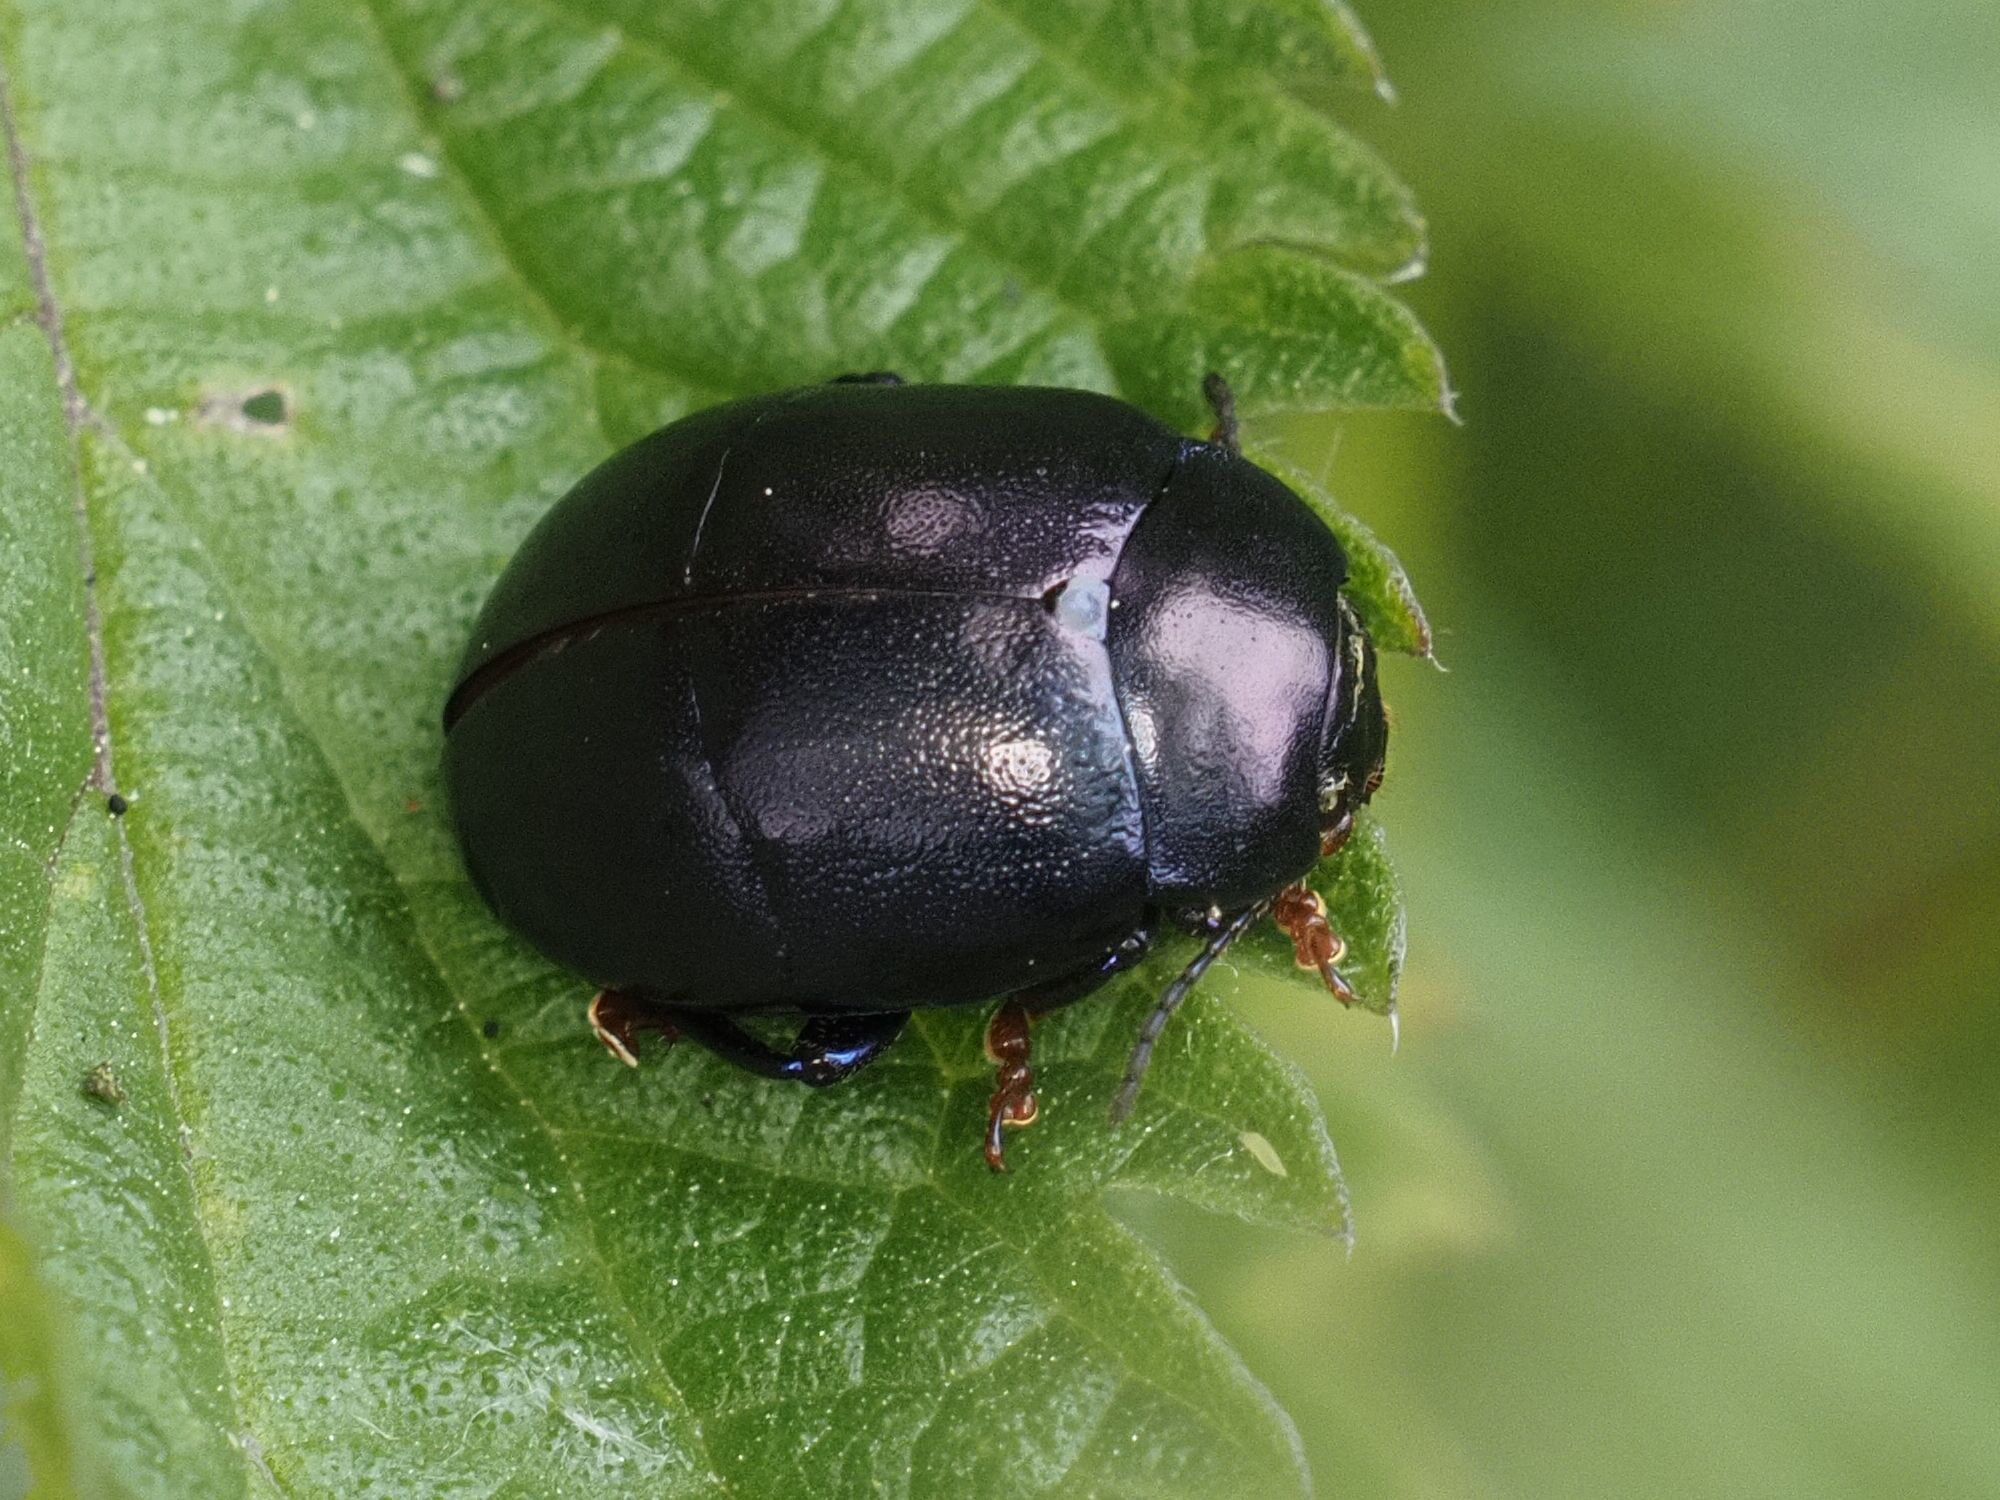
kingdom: Animalia
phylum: Arthropoda
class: Insecta
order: Coleoptera
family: Chrysomelidae
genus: Chrysolina
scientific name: Chrysolina sturmi
